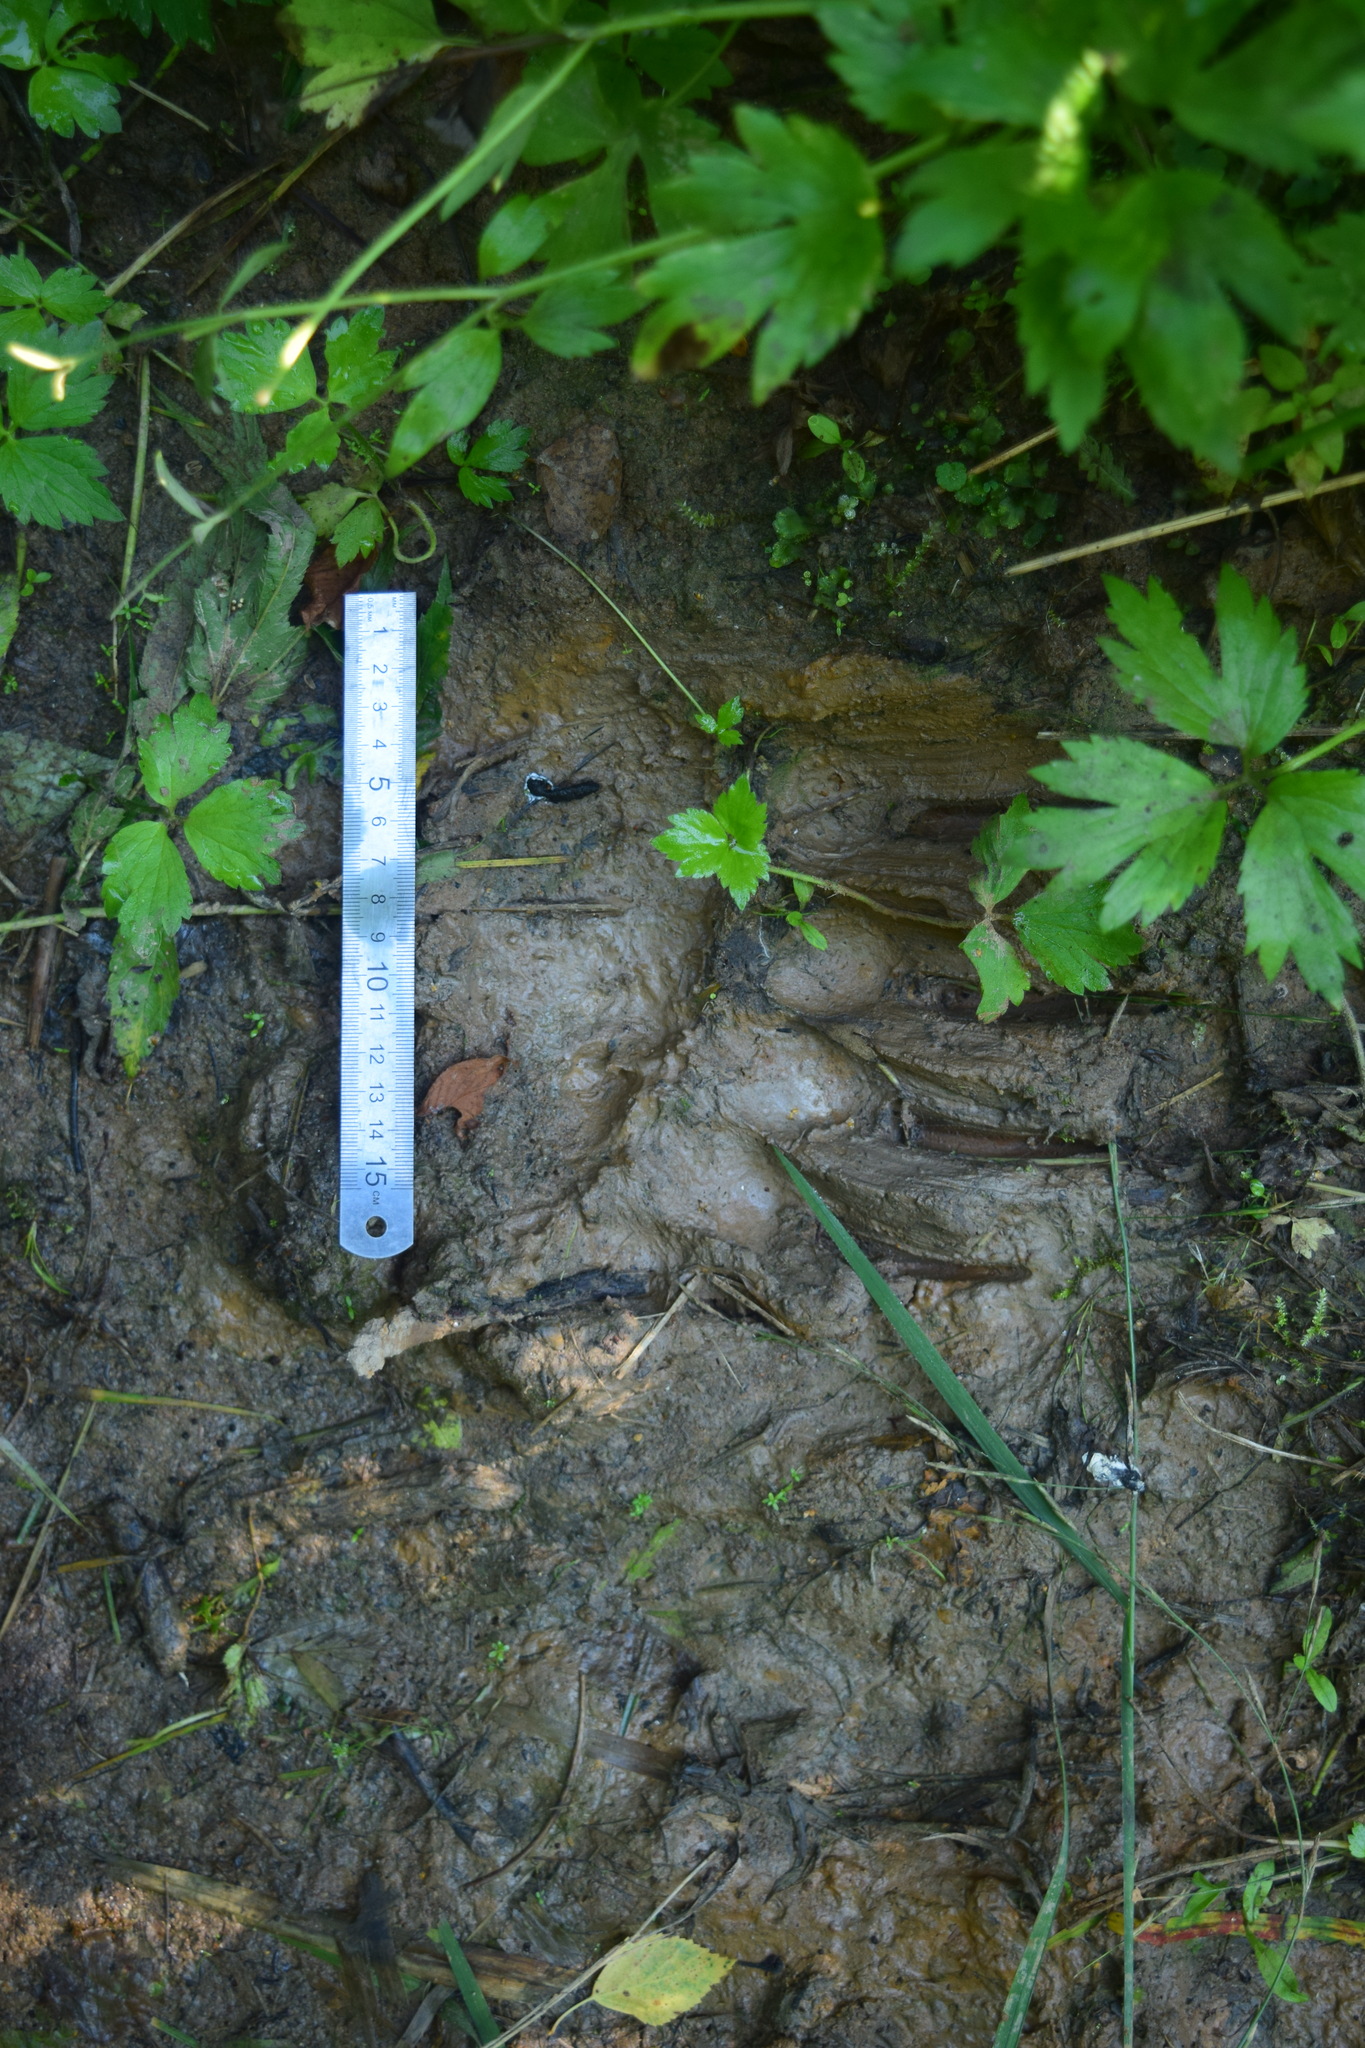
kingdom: Animalia
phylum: Chordata
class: Mammalia
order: Carnivora
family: Ursidae
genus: Ursus
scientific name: Ursus arctos
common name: Brown bear
